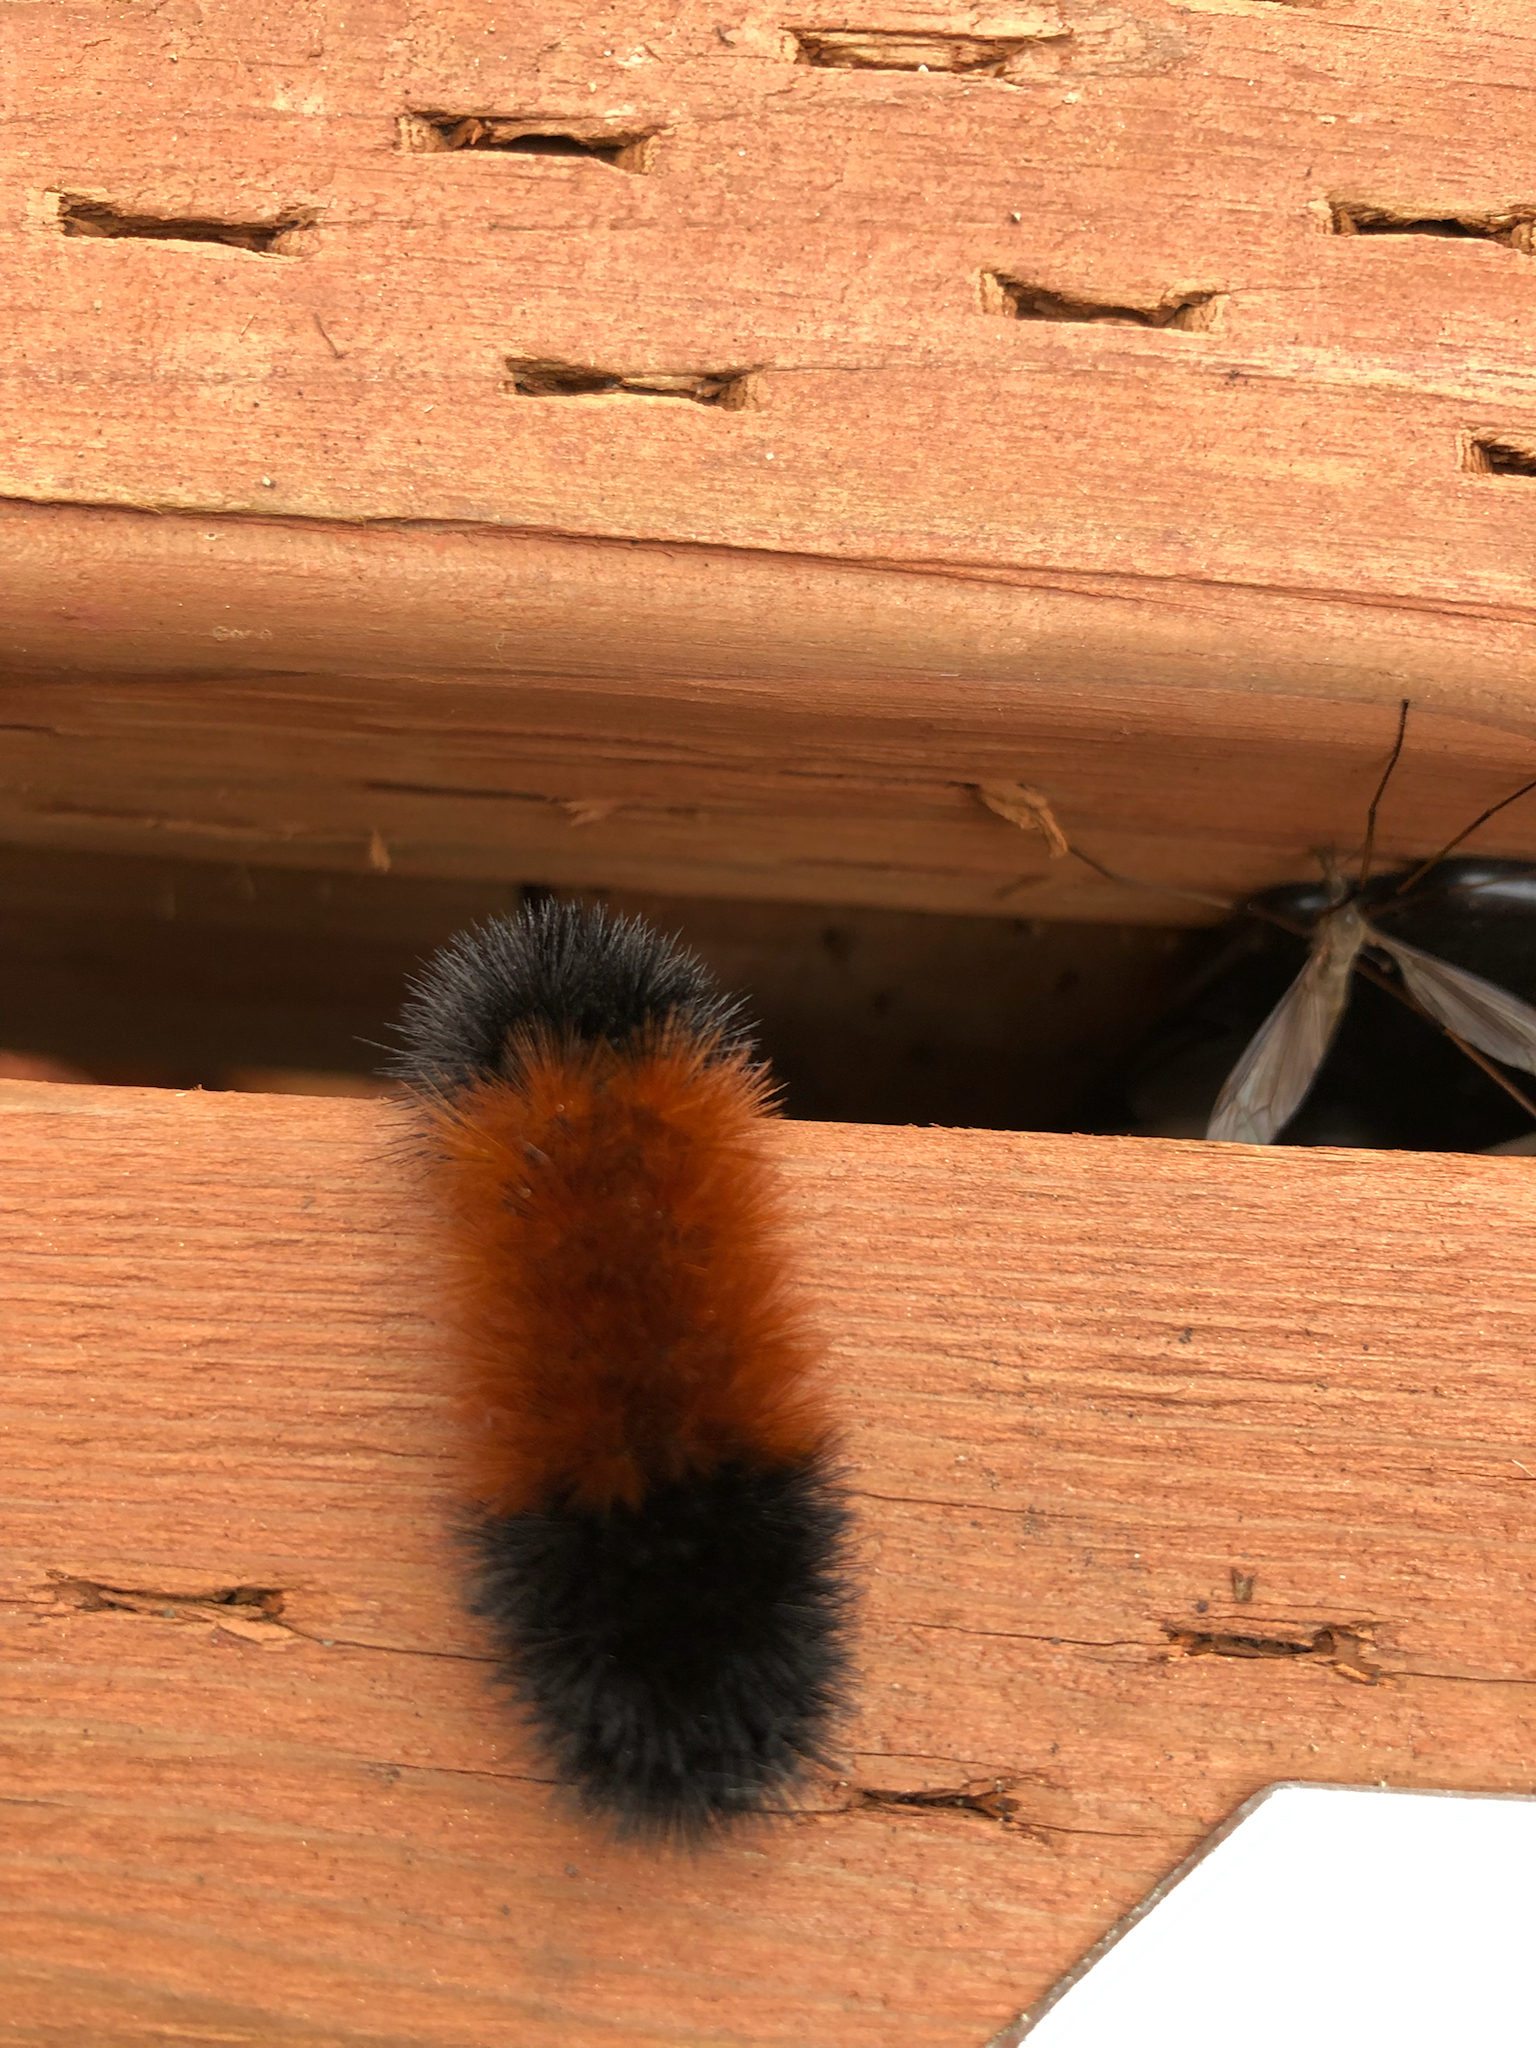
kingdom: Animalia
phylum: Arthropoda
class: Insecta
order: Lepidoptera
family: Erebidae
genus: Pyrrharctia
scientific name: Pyrrharctia isabella
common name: Isabella tiger moth
